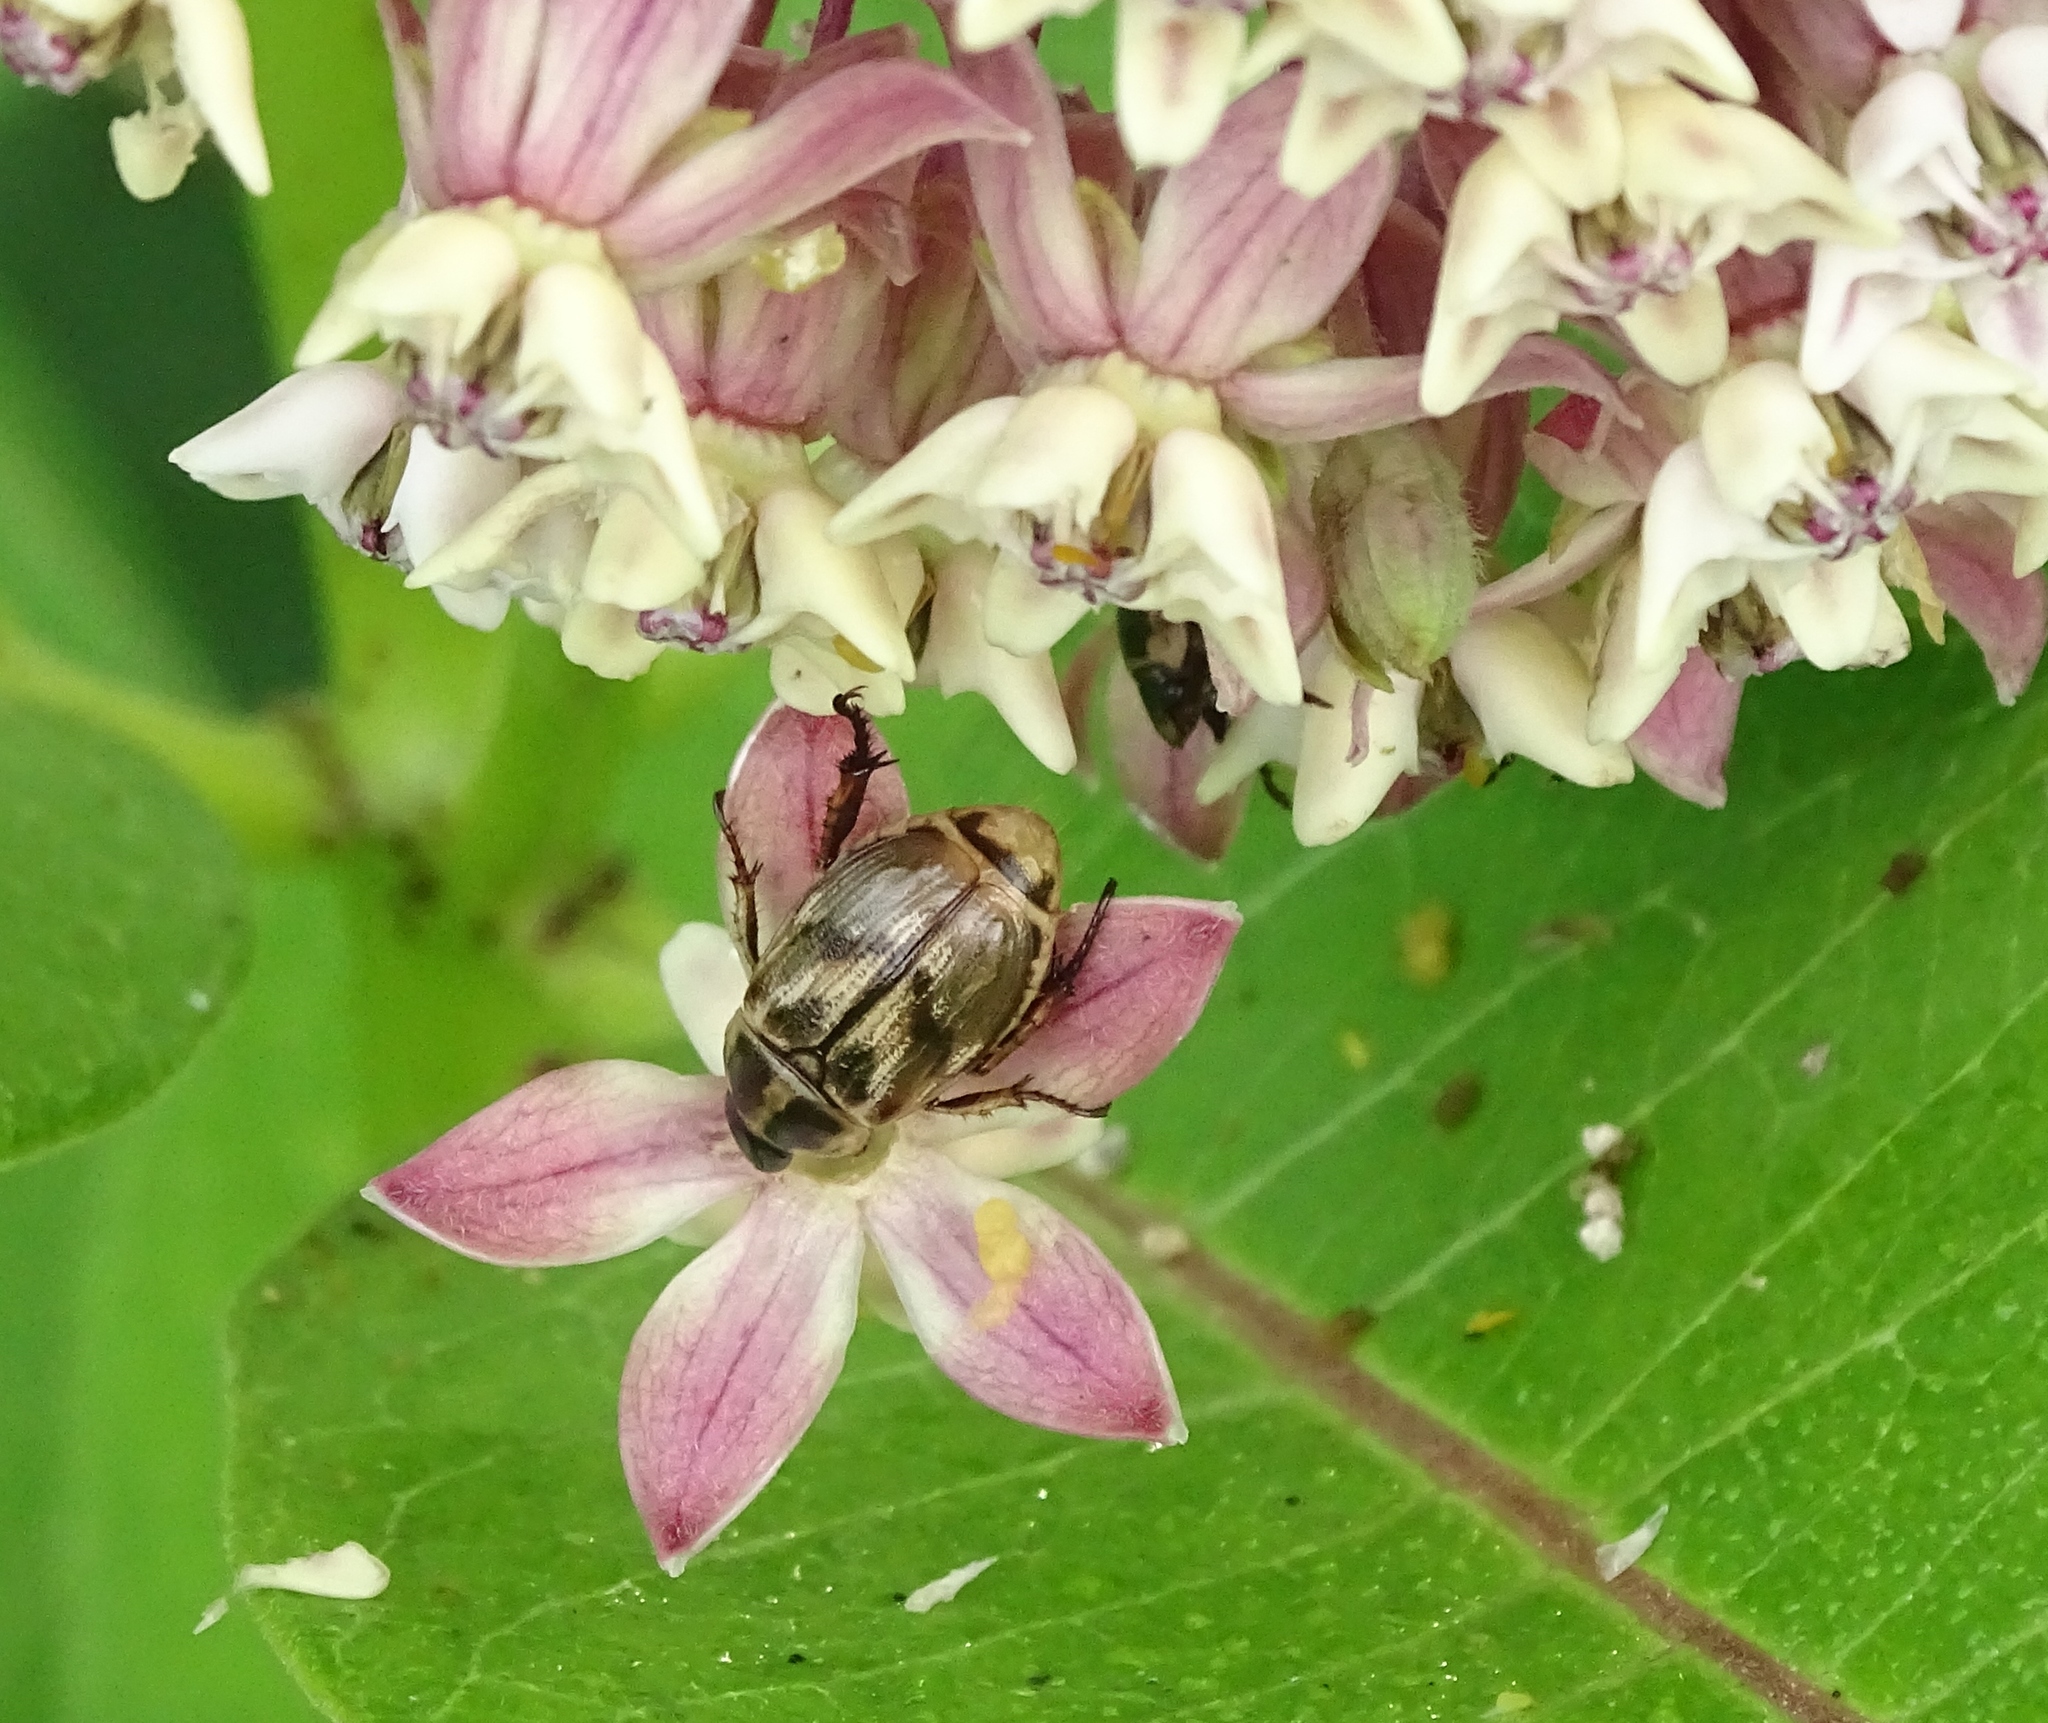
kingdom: Animalia
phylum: Arthropoda
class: Insecta
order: Coleoptera
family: Scarabaeidae
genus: Exomala
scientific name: Exomala orientalis
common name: Oriental beetle
